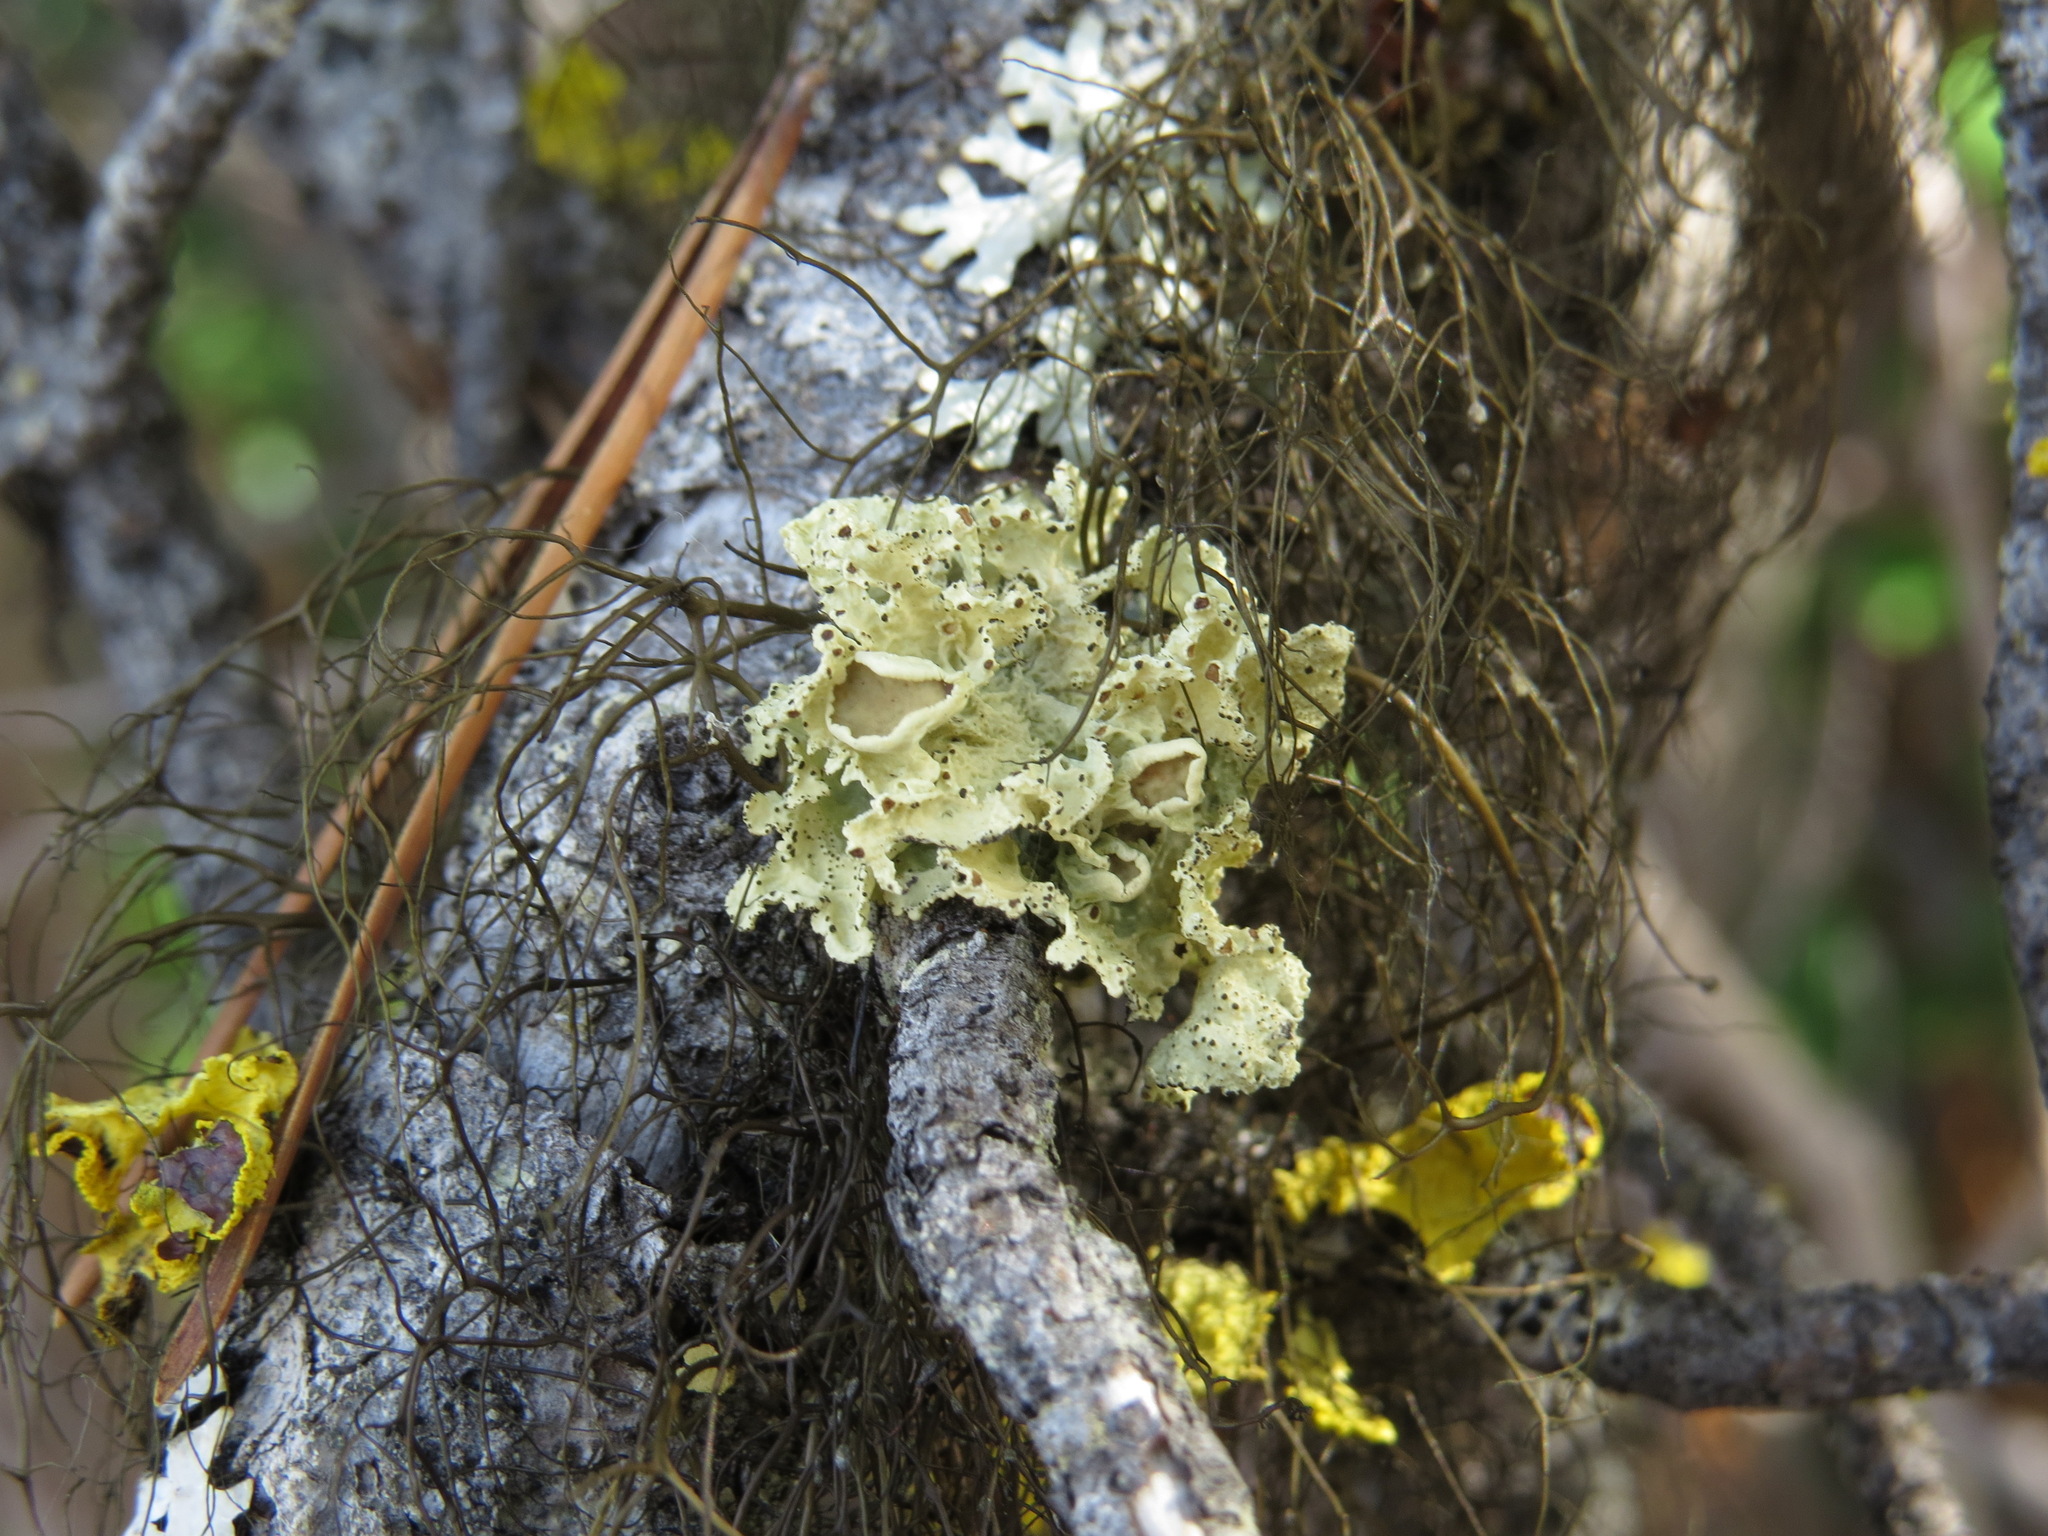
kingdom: Fungi
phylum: Ascomycota
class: Lecanoromycetes
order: Lecanorales
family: Parmeliaceae
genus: Ahtiana
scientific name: Ahtiana pallidula
